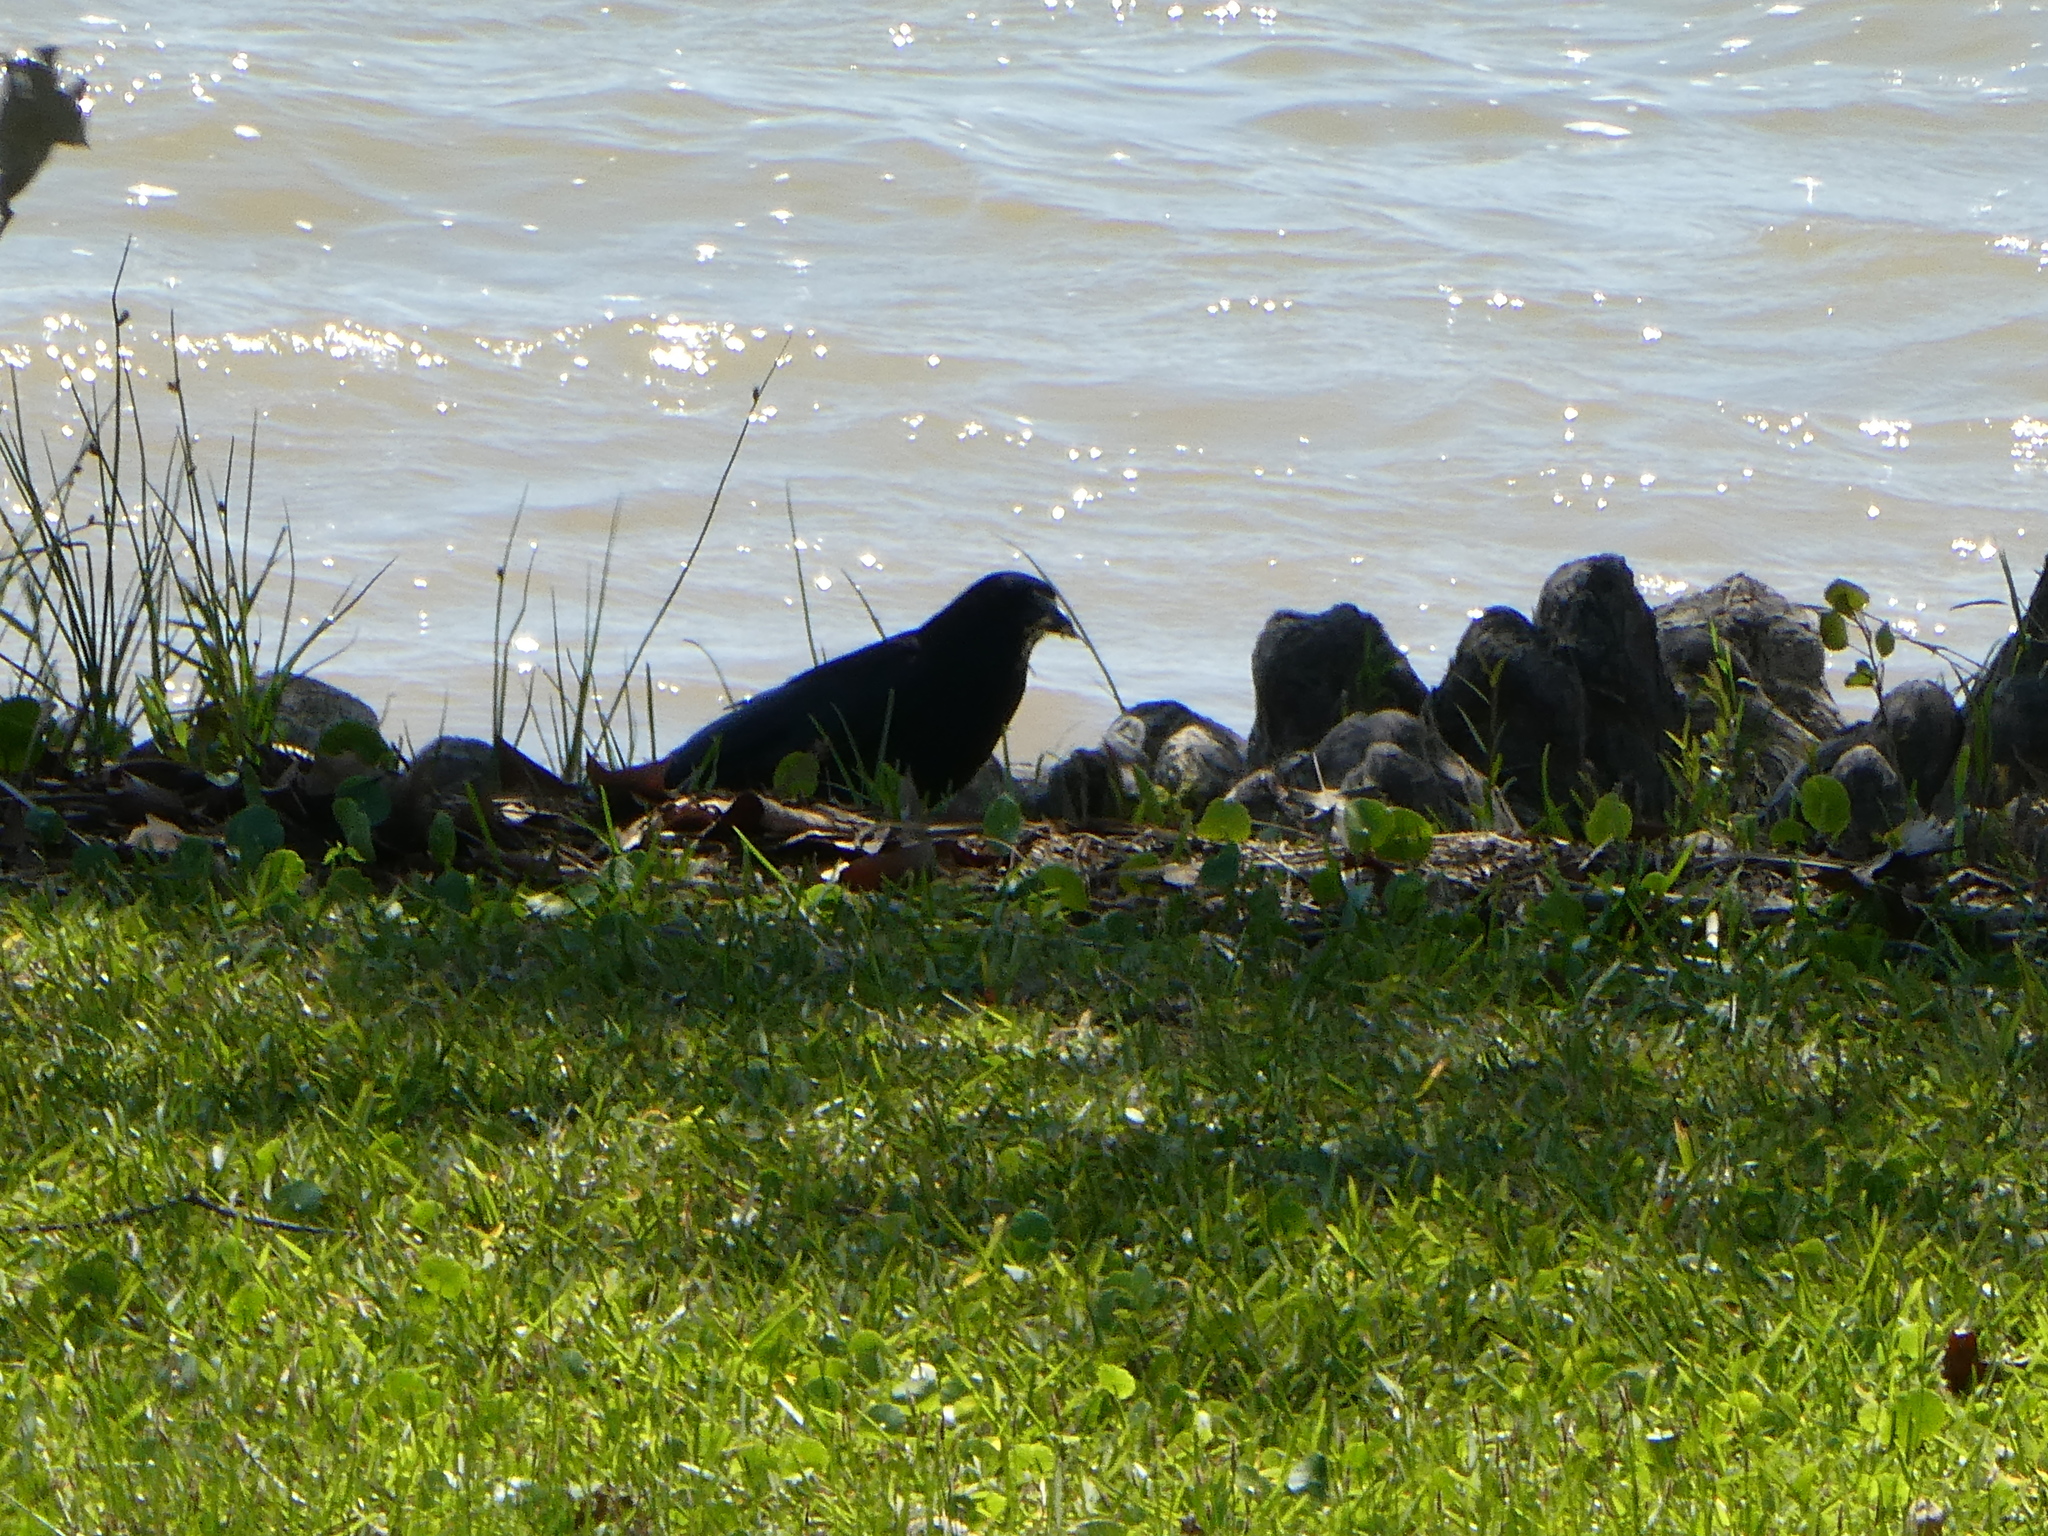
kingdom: Animalia
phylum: Chordata
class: Aves
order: Passeriformes
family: Corvidae
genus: Corvus
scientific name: Corvus brachyrhynchos
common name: American crow
